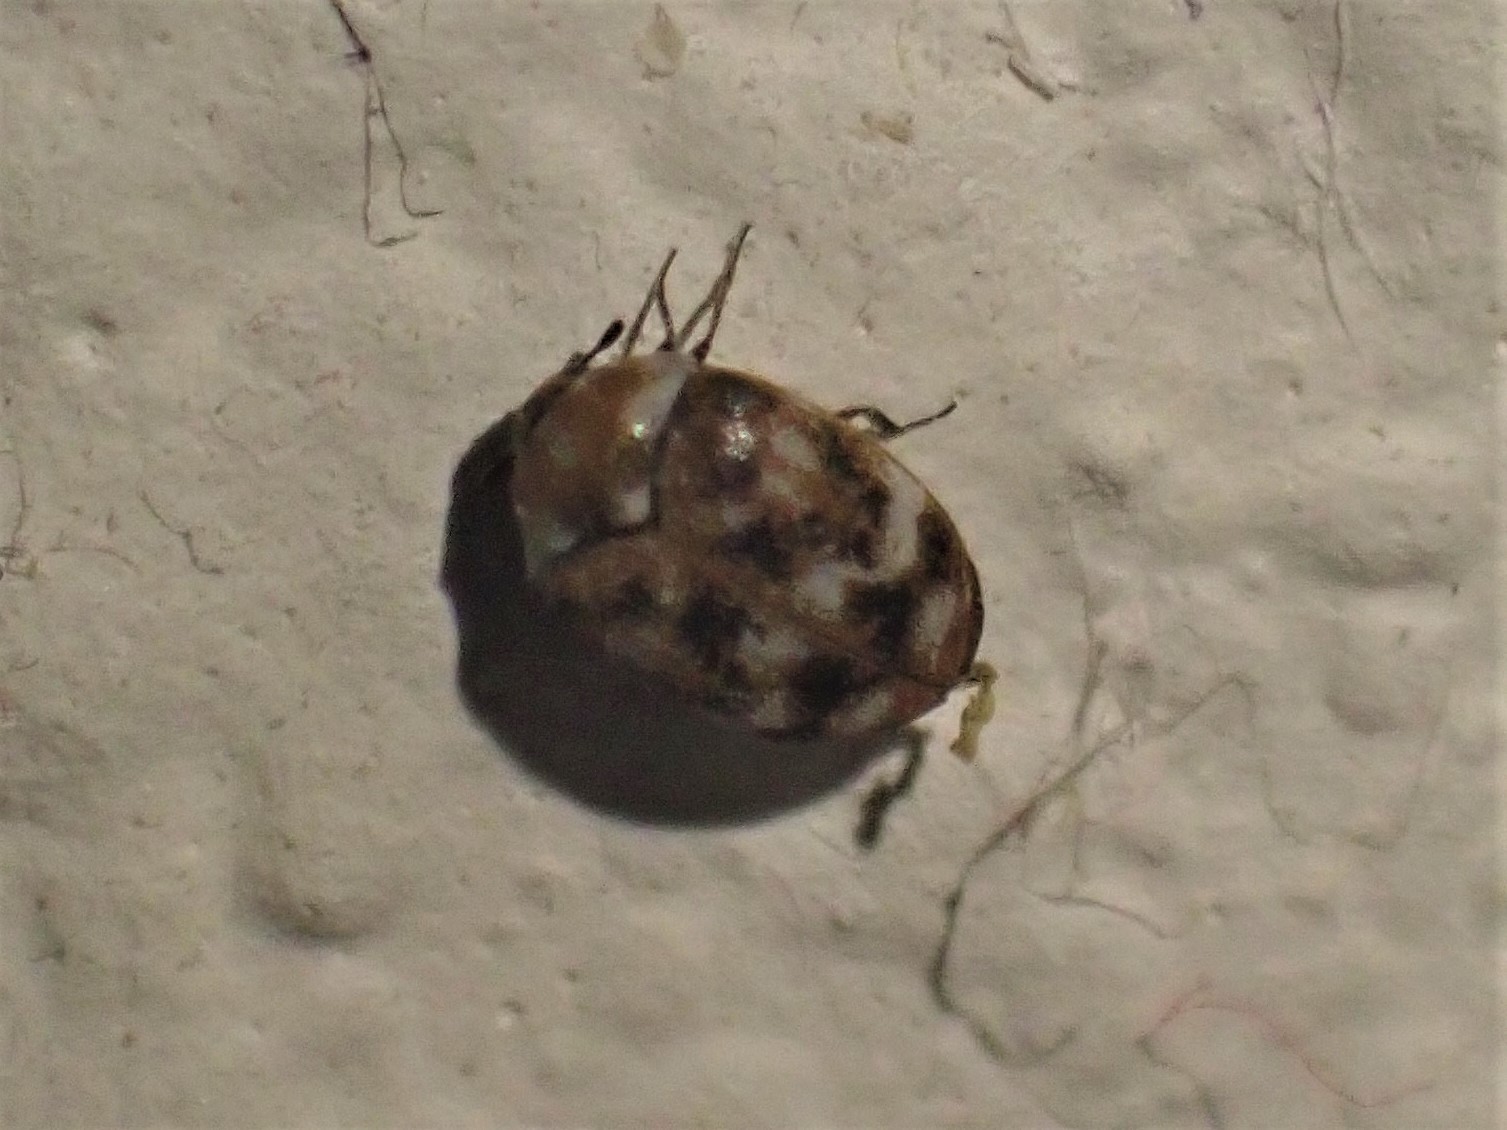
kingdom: Animalia
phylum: Arthropoda
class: Insecta
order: Coleoptera
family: Dermestidae
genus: Anthrenus
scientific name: Anthrenus verbasci
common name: Varied carpet beetle
